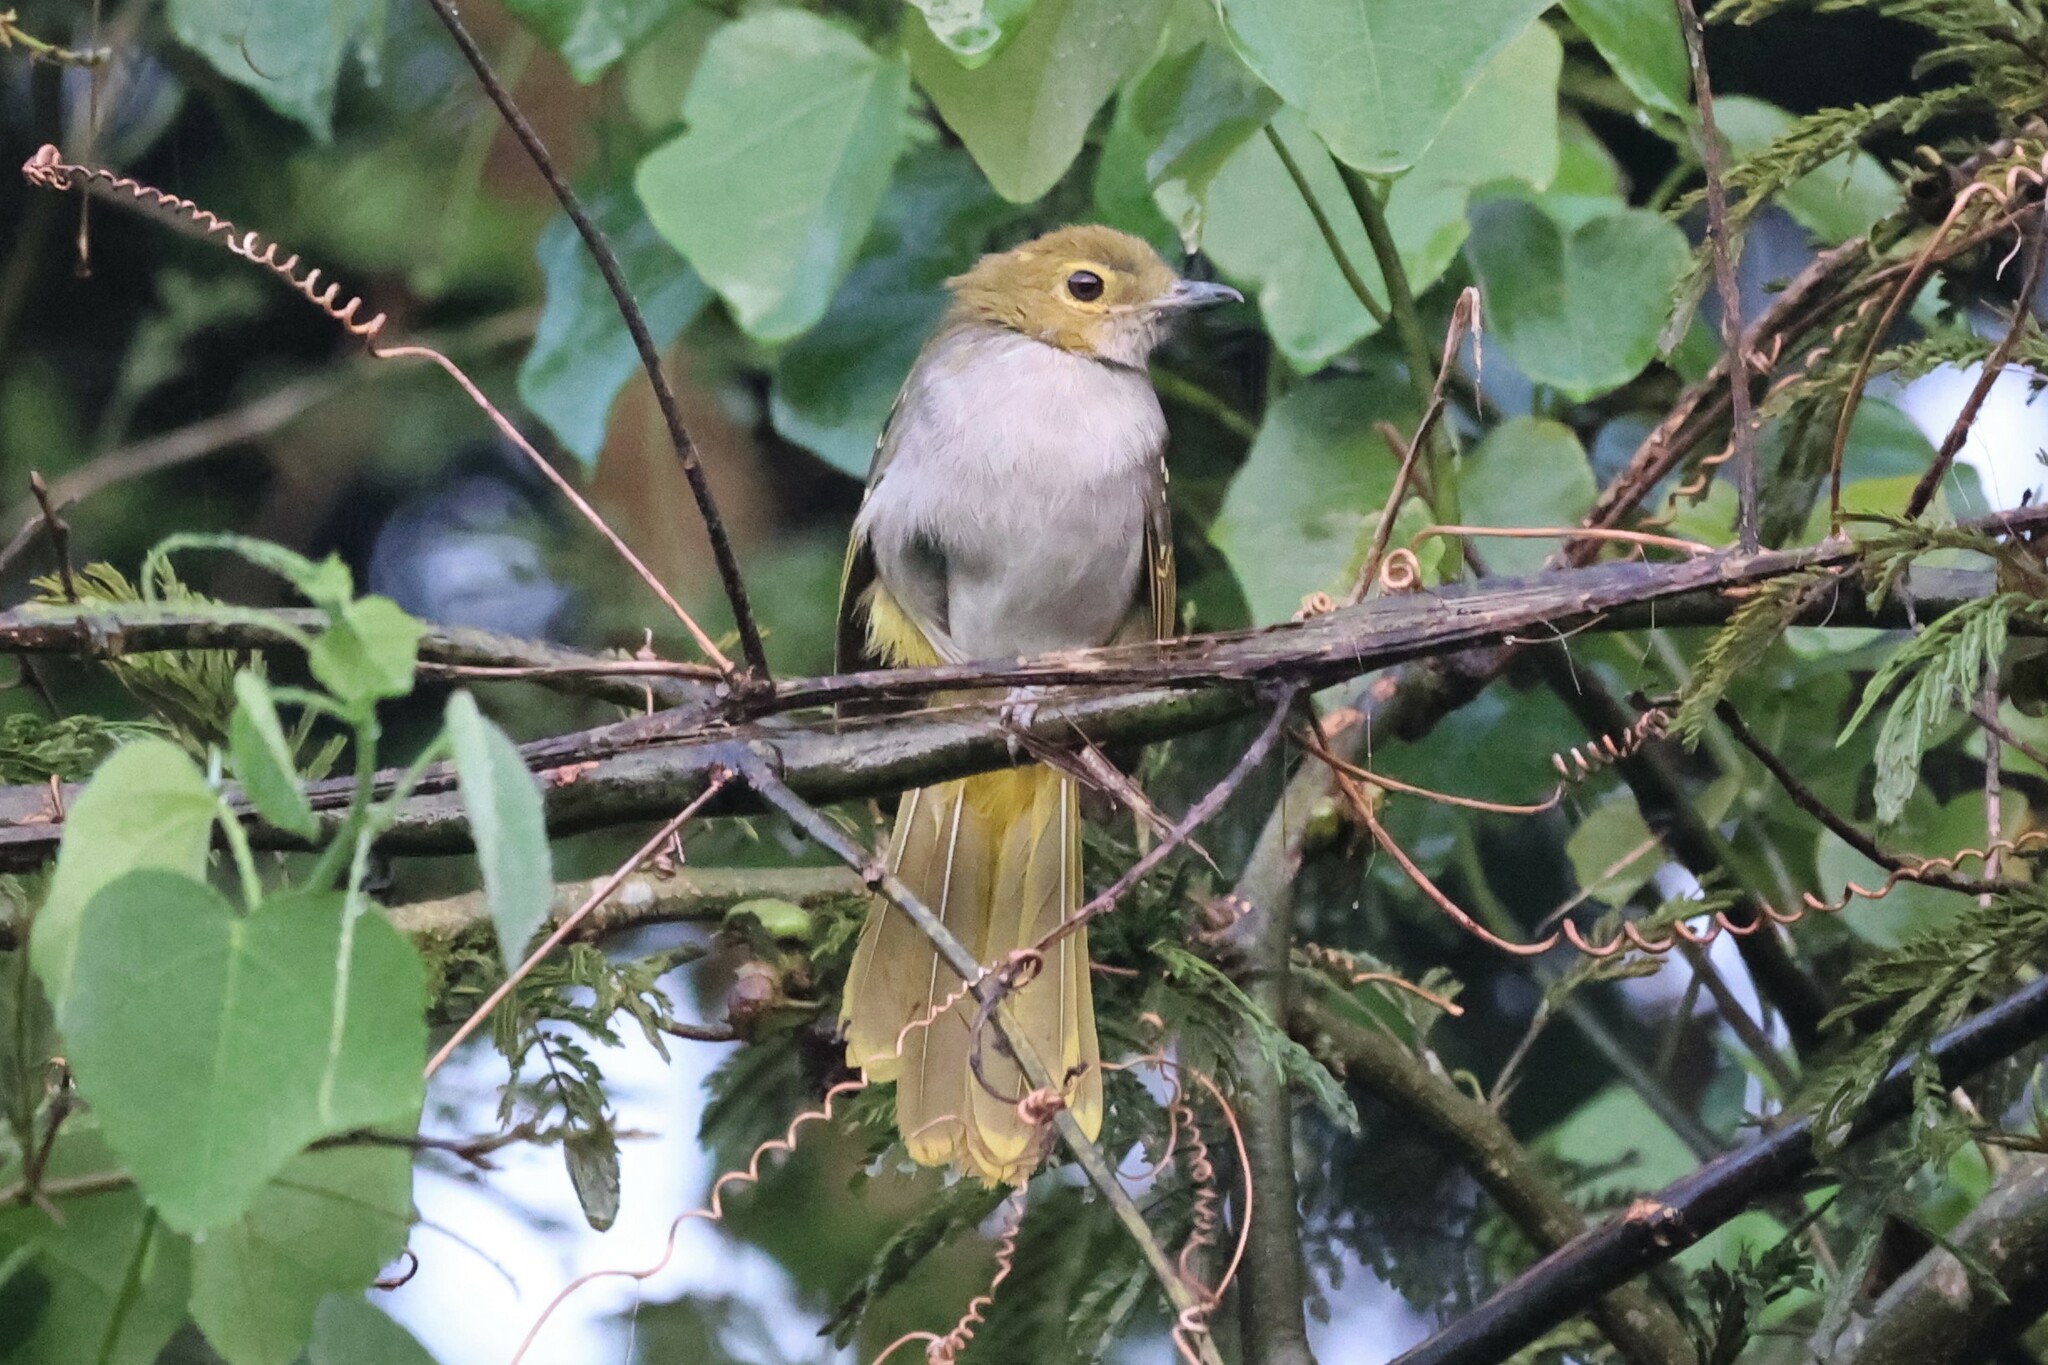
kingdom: Animalia
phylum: Chordata
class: Aves
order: Passeriformes
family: Nicatoridae
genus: Nicator
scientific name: Nicator chloris
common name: Western nicator
